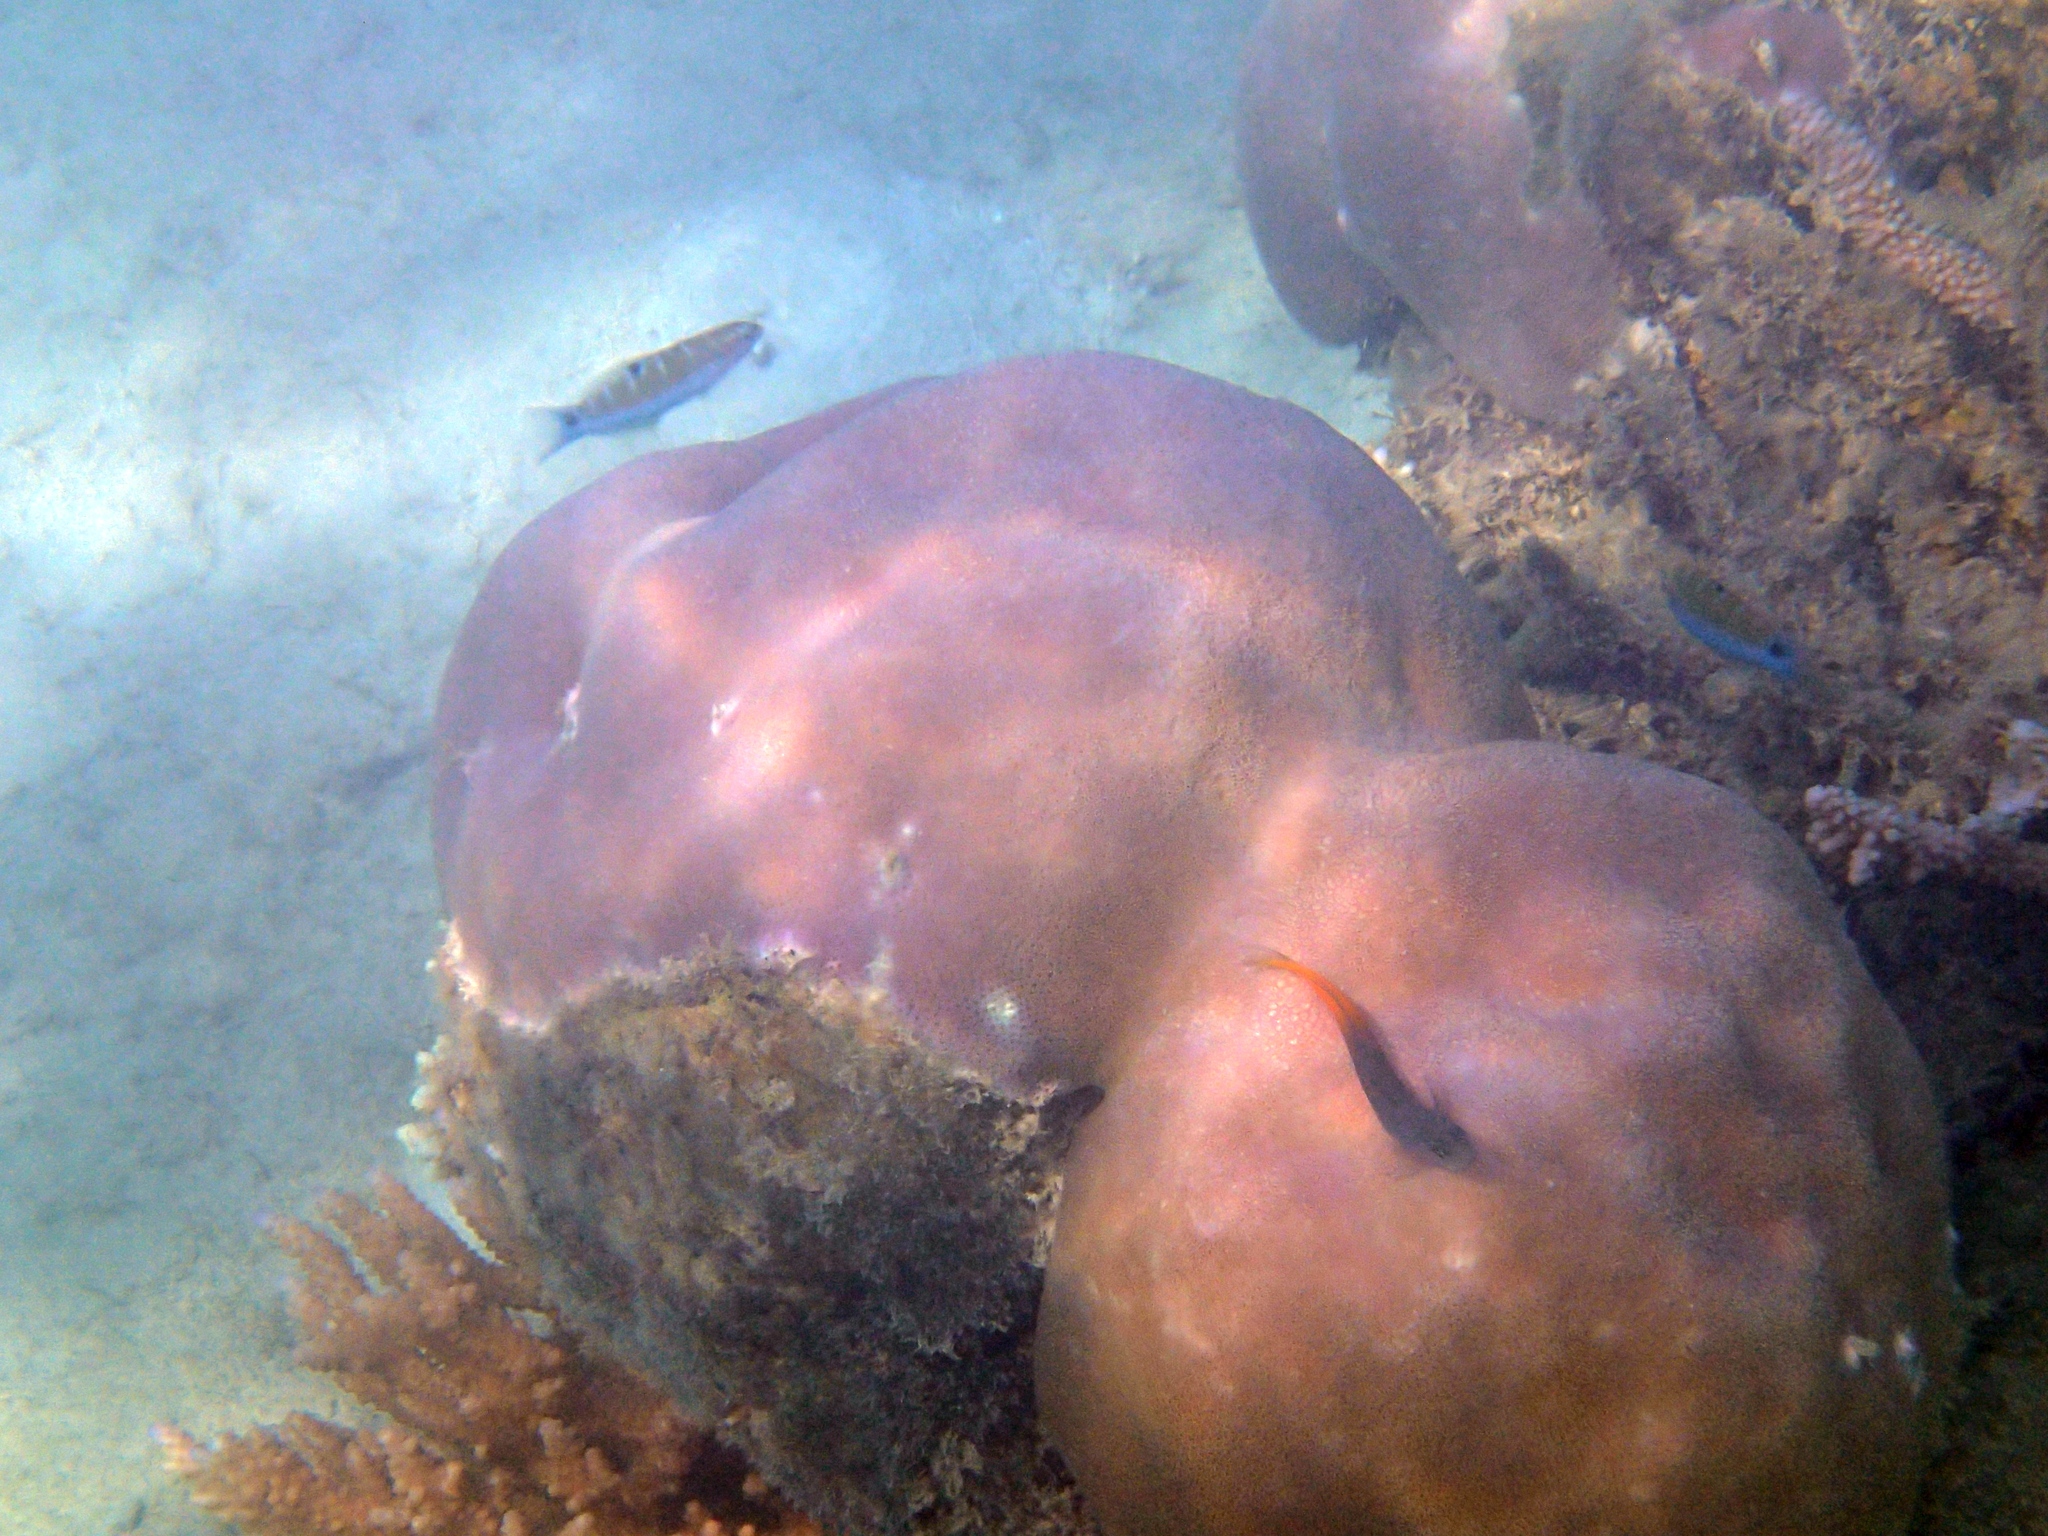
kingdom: Animalia
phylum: Chordata
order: Perciformes
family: Labridae
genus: Thalassoma
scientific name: Thalassoma lunare
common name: Blue wrasse
